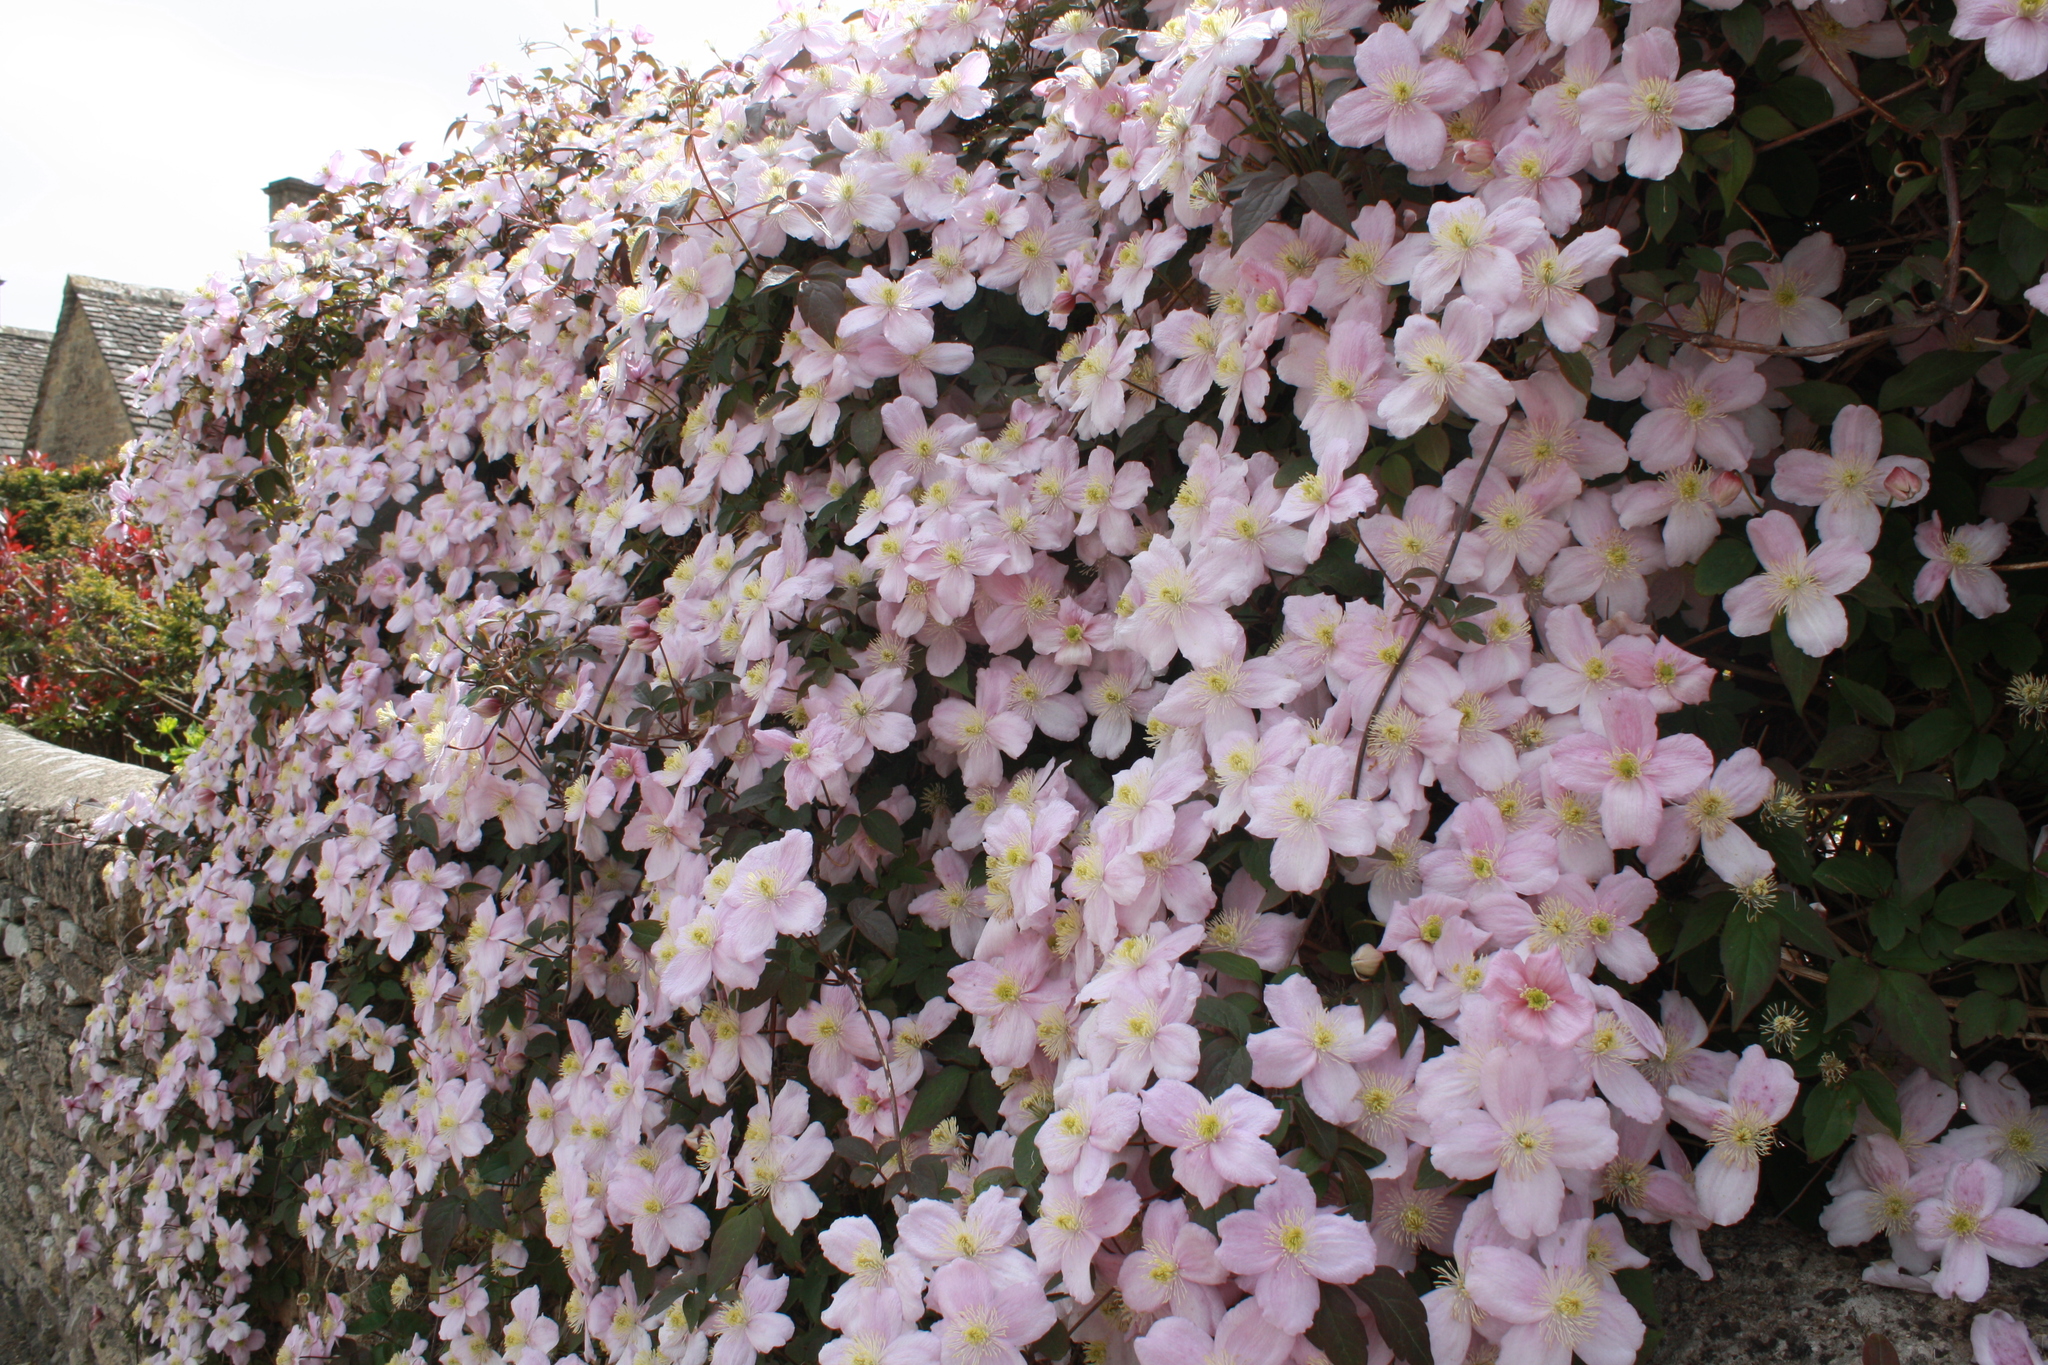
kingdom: Plantae
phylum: Tracheophyta
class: Magnoliopsida
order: Ranunculales
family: Ranunculaceae
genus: Clematis
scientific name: Clematis montana
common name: Himalayan clematis
